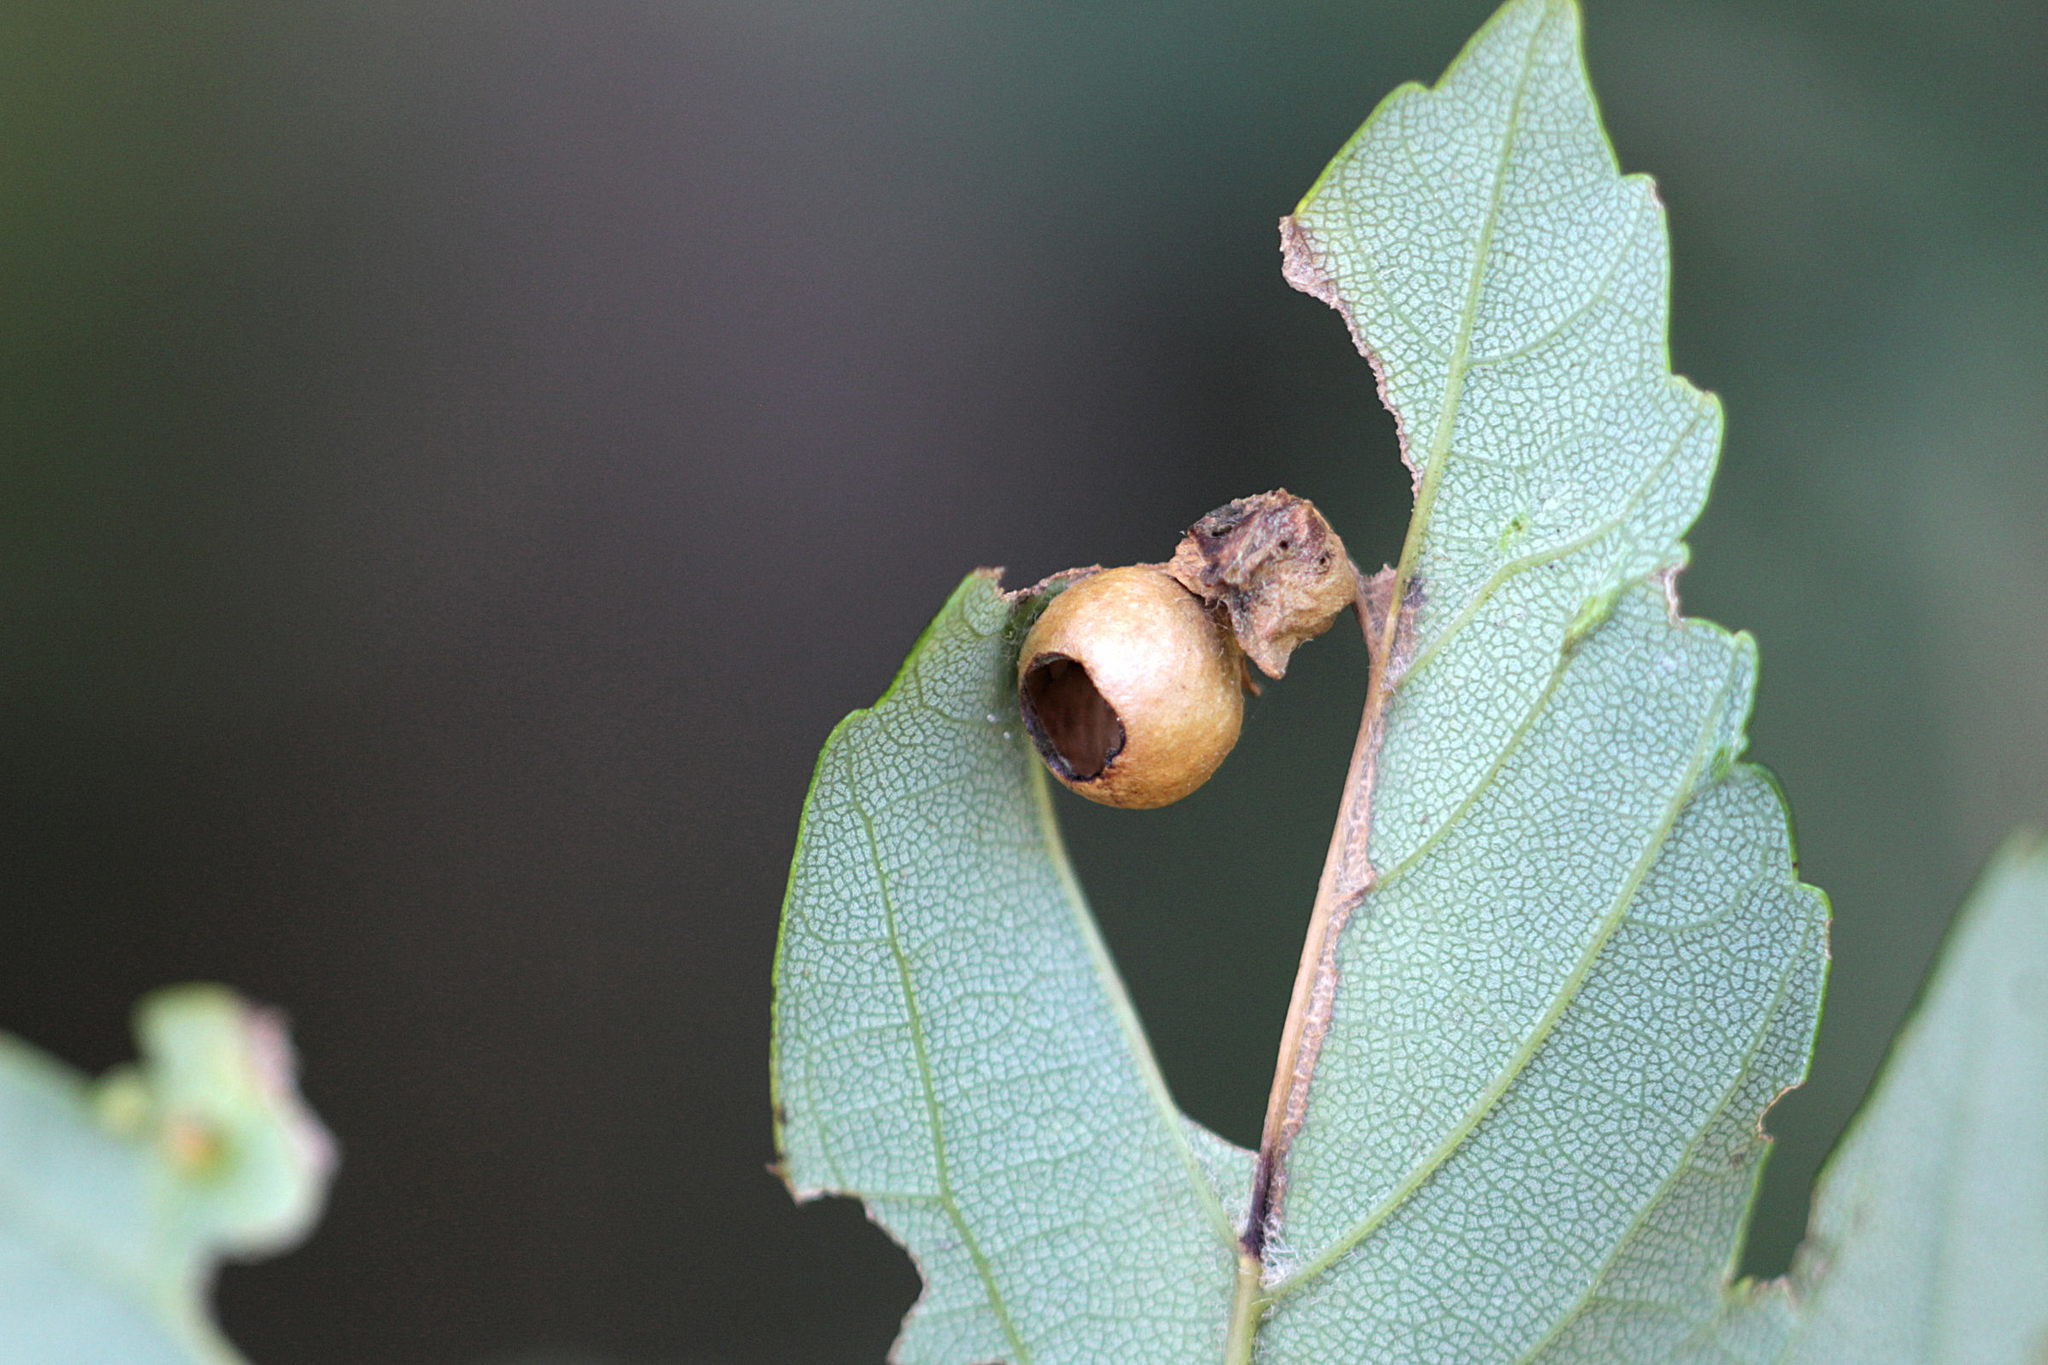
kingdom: Animalia
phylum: Arthropoda
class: Insecta
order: Hymenoptera
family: Cynipidae
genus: Pediaspis
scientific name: Pediaspis aceris
